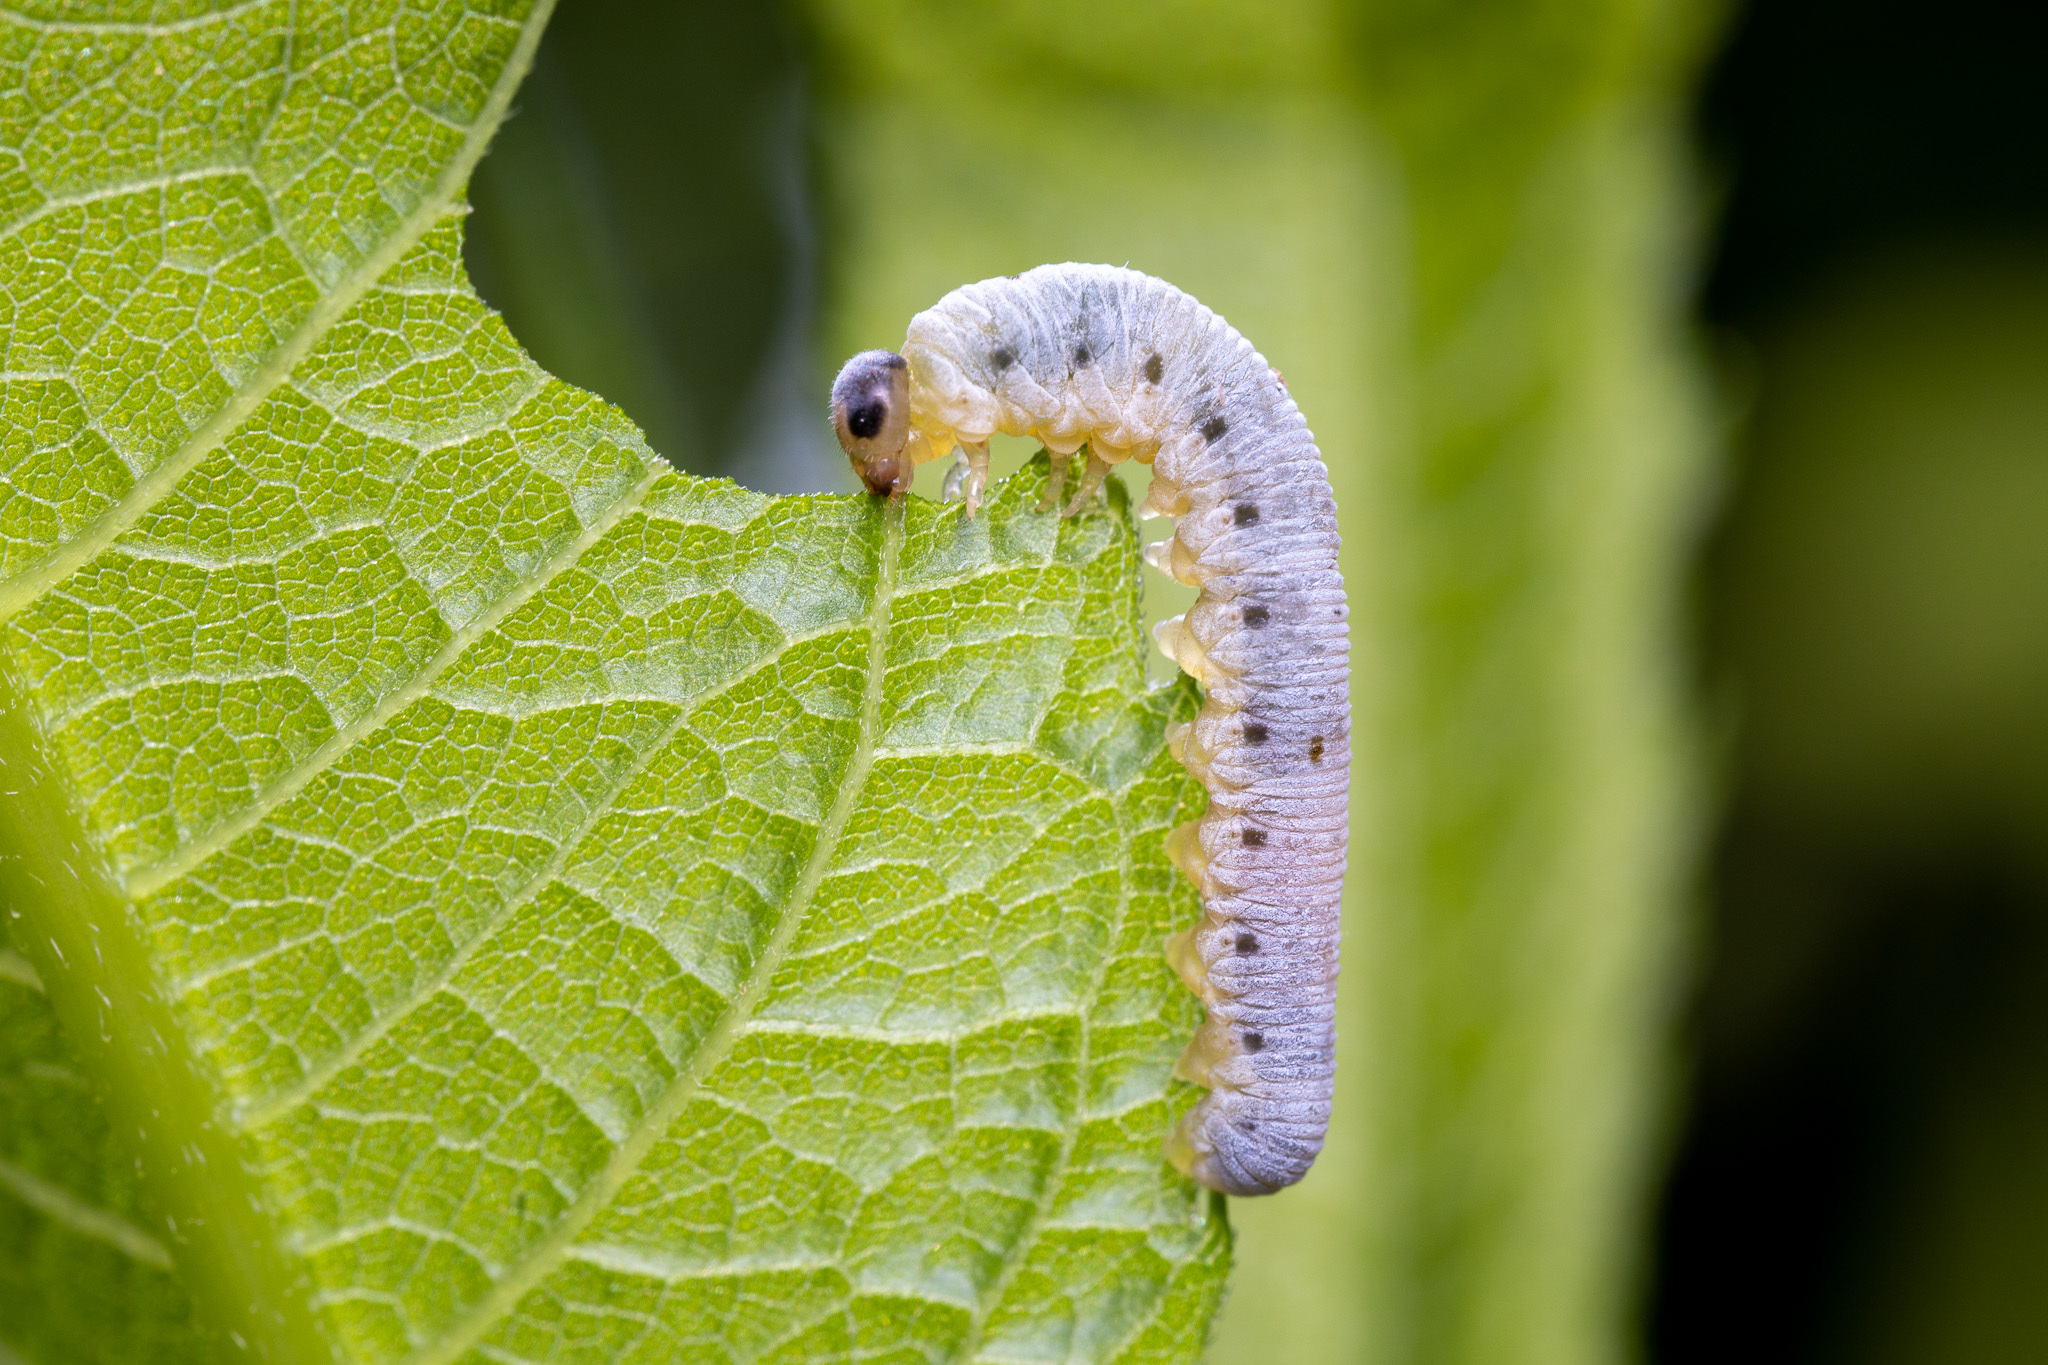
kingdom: Animalia
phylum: Arthropoda
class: Insecta
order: Hymenoptera
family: Tenthredinidae
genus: Macrophya
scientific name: Macrophya
